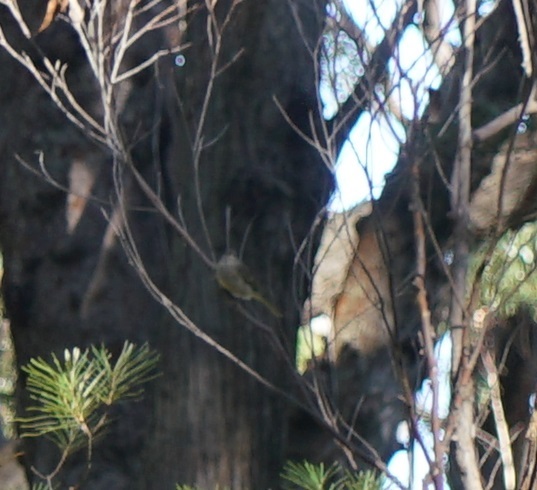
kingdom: Animalia
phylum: Chordata
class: Aves
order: Passeriformes
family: Pachycephalidae
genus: Pachycephala
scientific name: Pachycephala pectoralis
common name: Australian golden whistler
